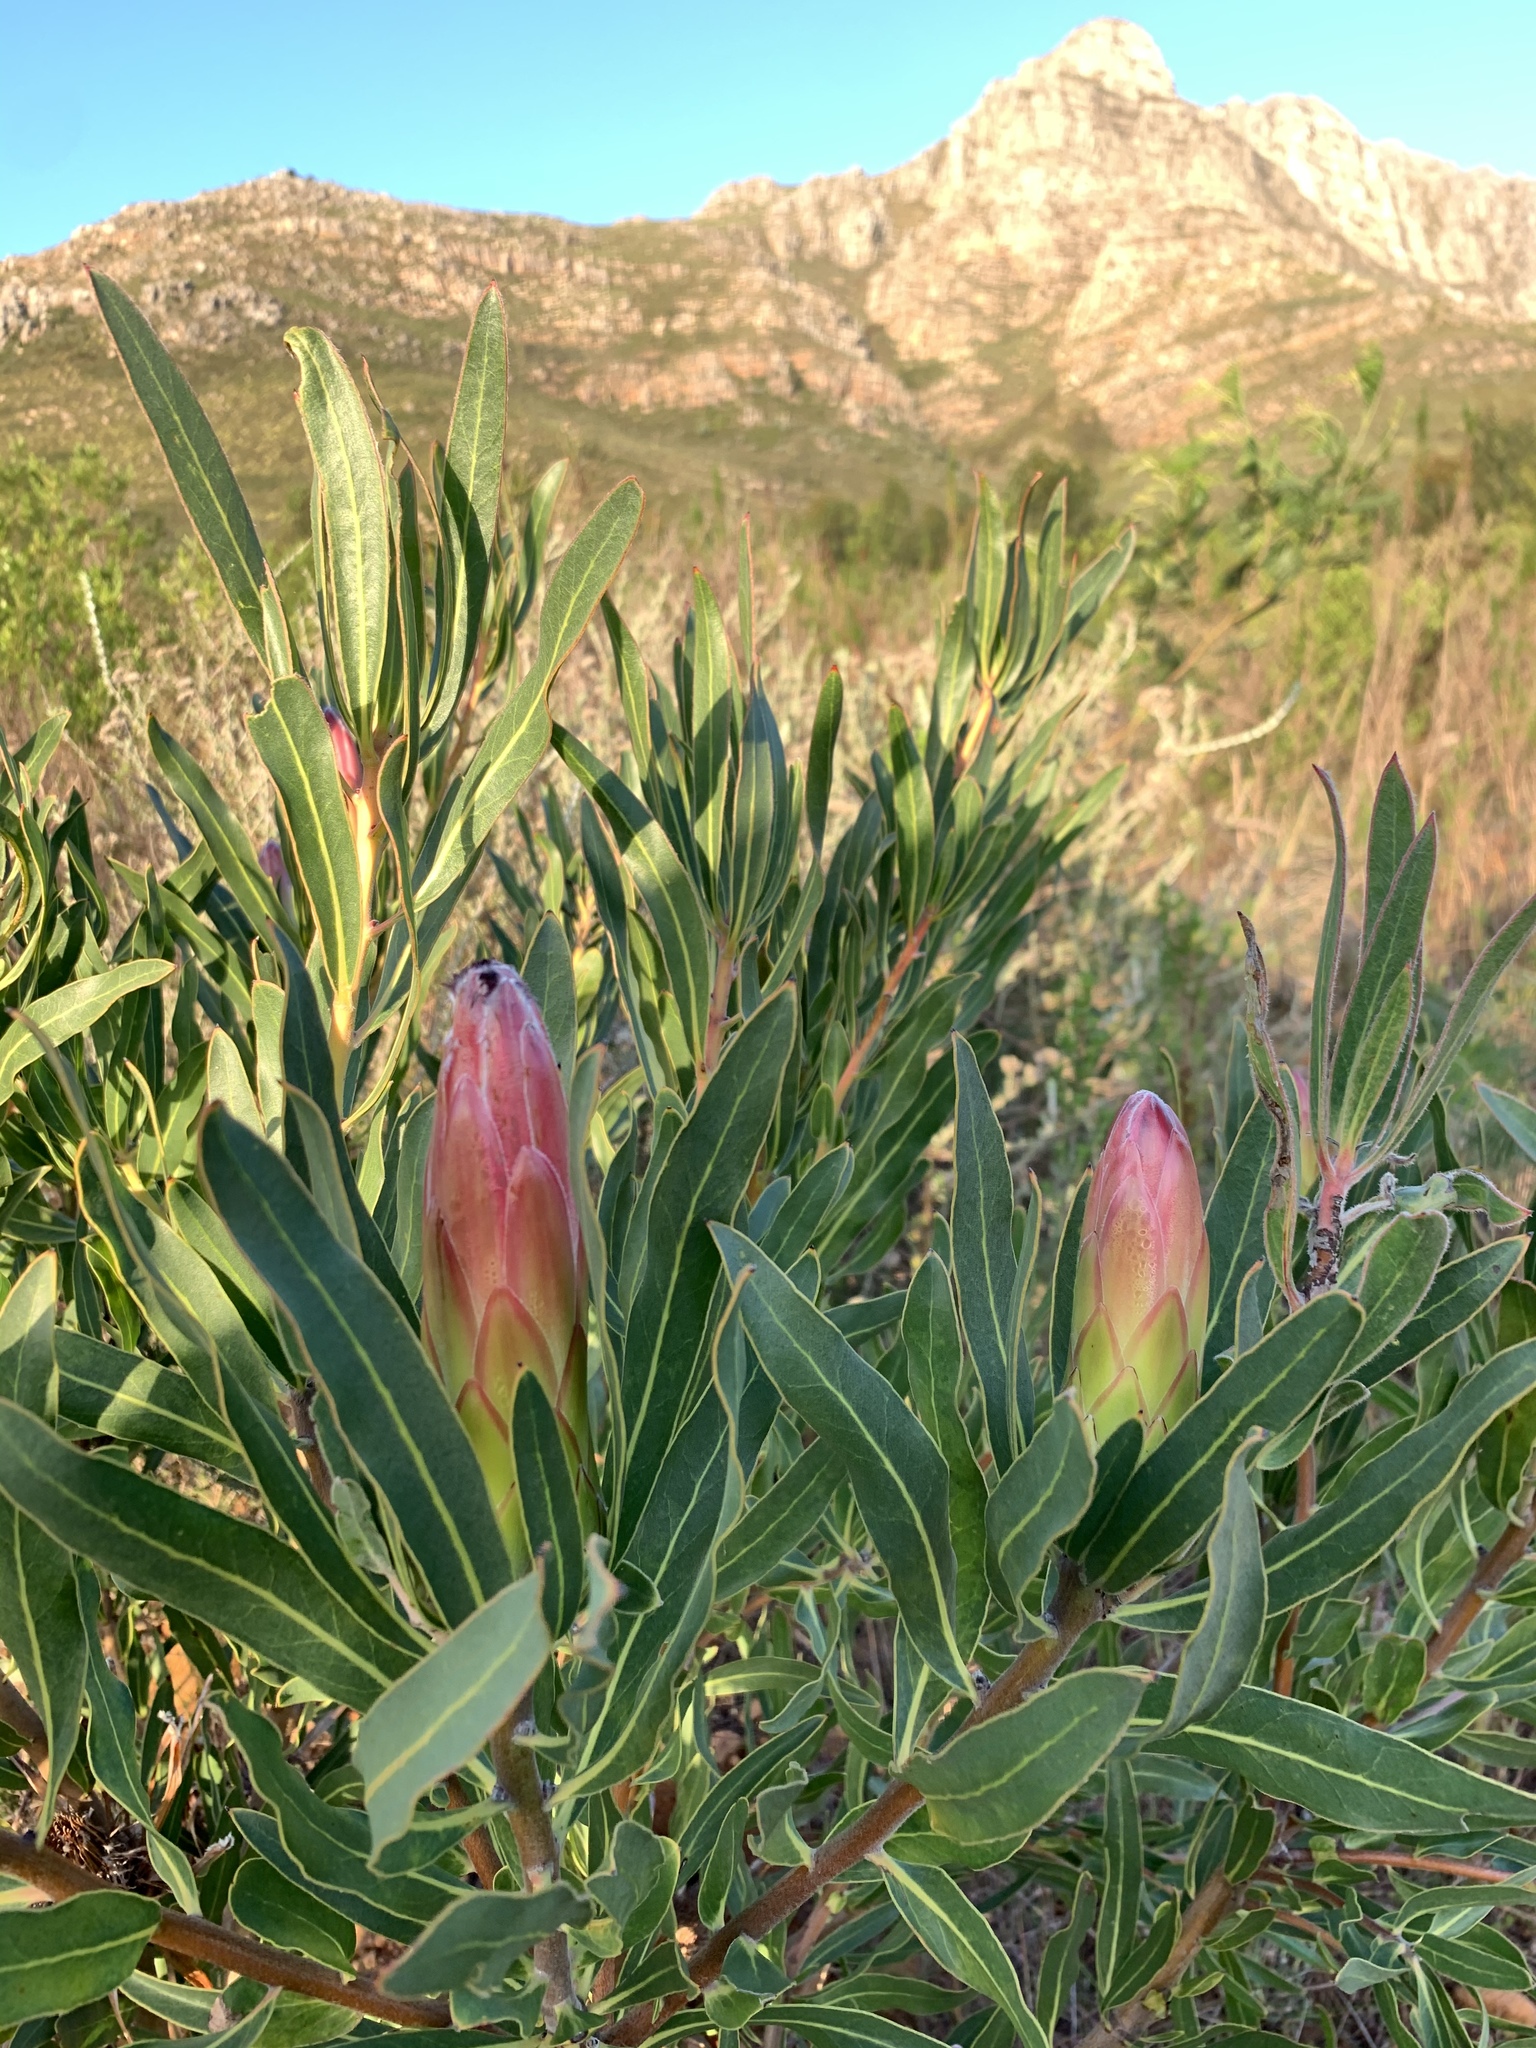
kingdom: Plantae
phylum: Tracheophyta
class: Magnoliopsida
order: Proteales
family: Proteaceae
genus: Protea
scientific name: Protea burchellii
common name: Burchell's sugarbush
